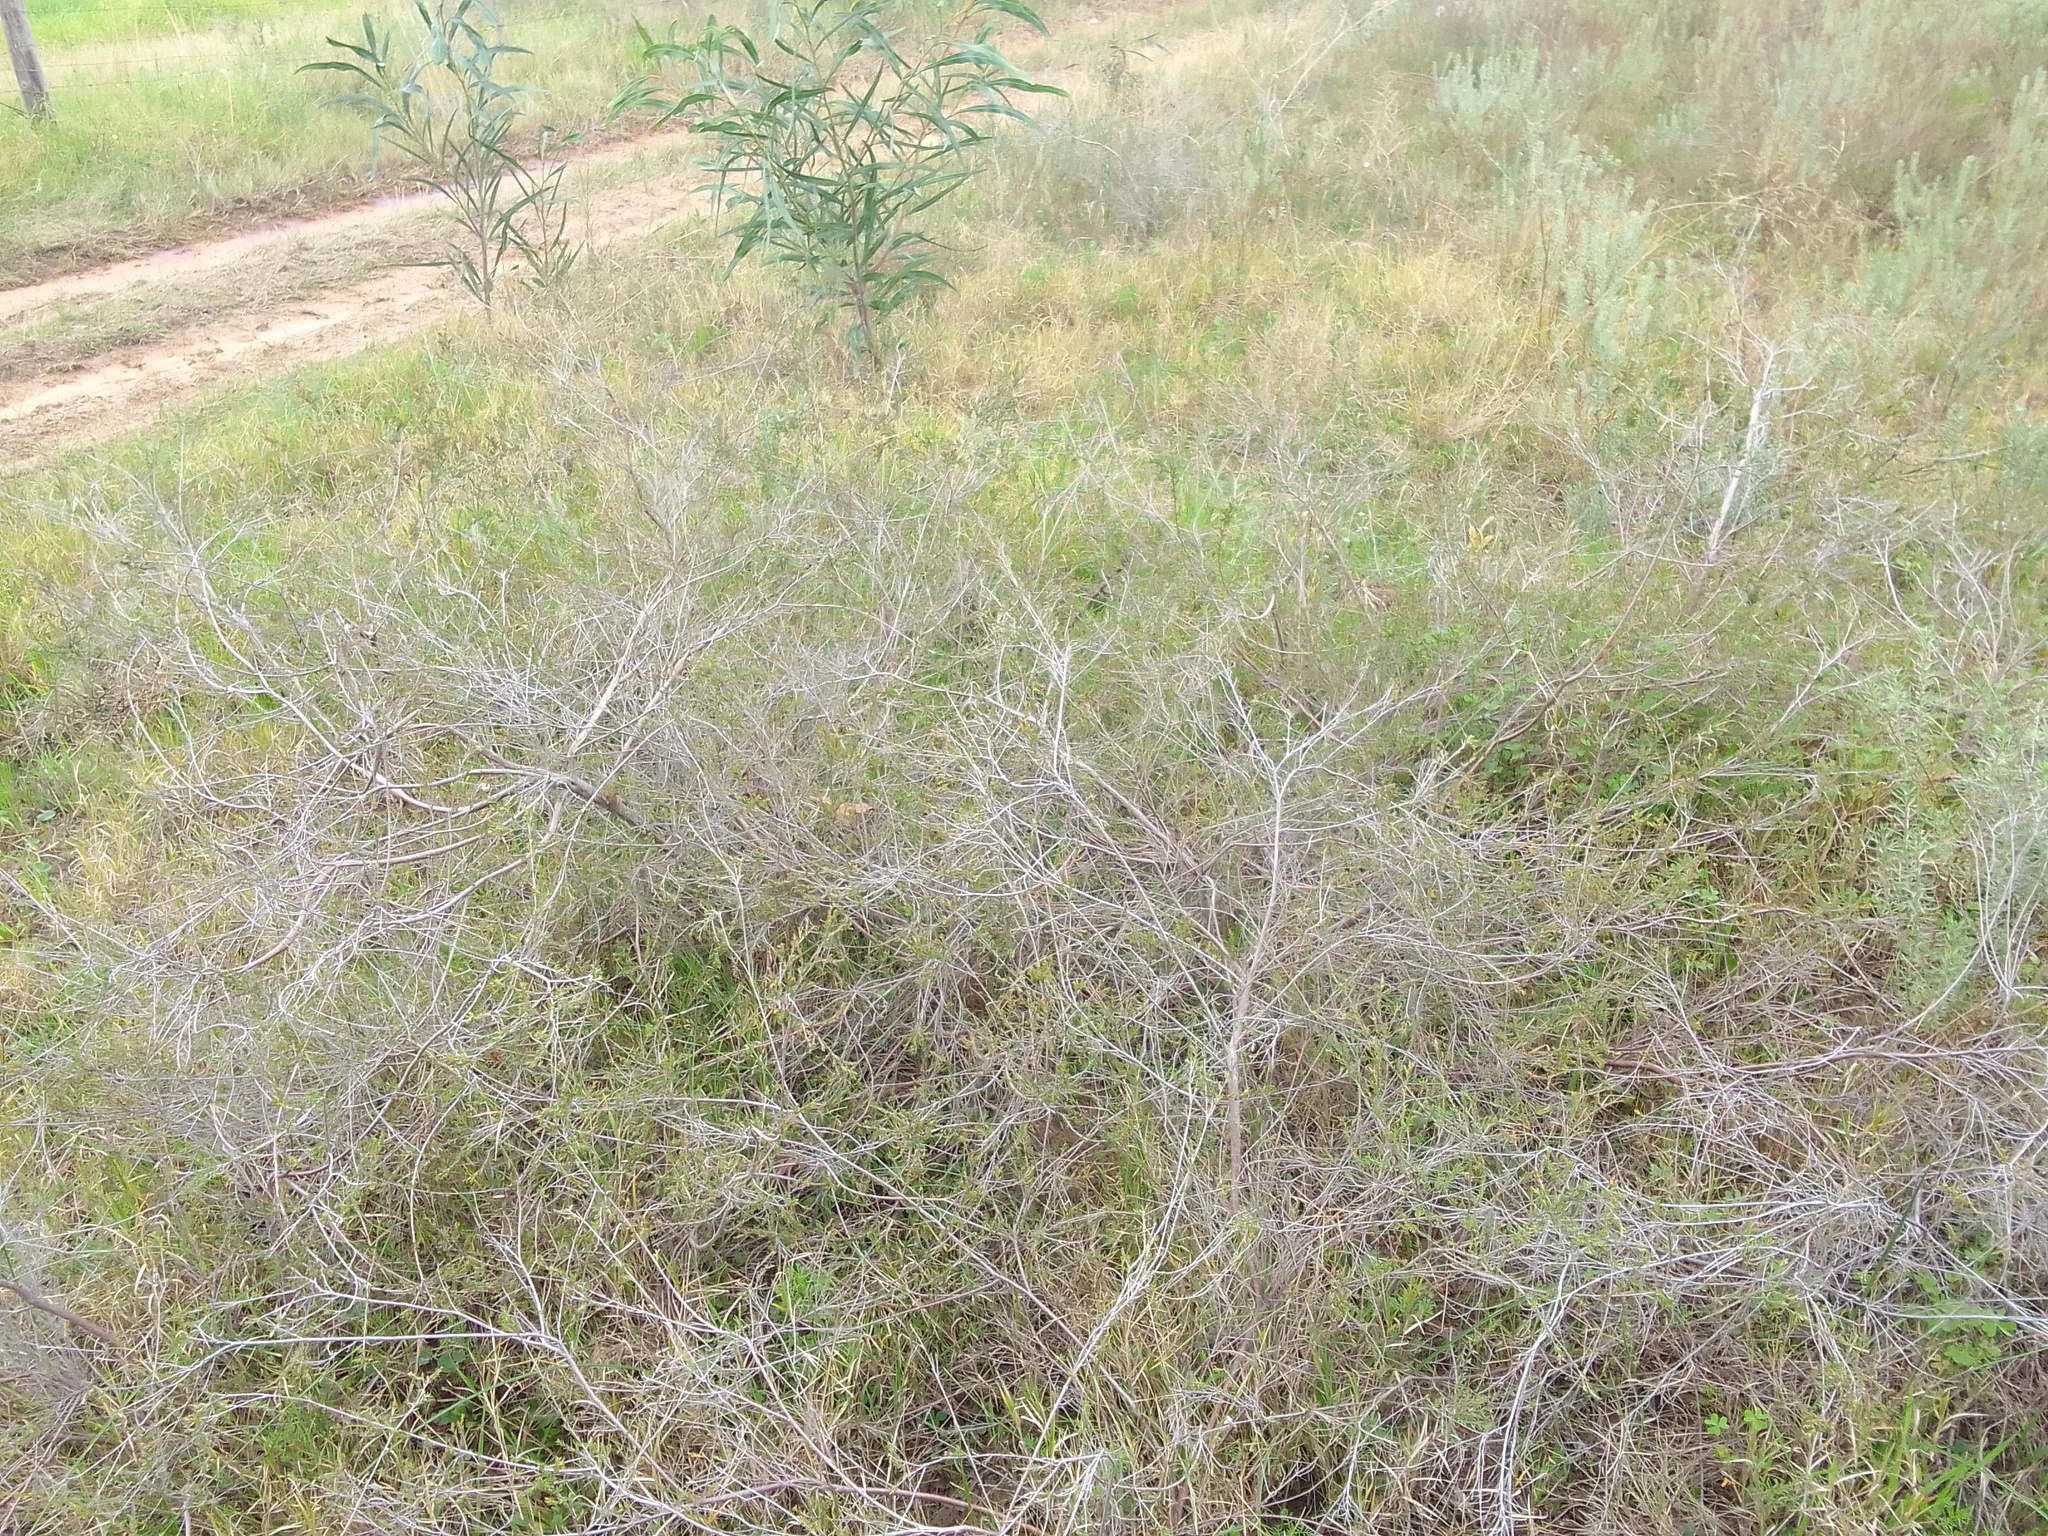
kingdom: Plantae
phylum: Tracheophyta
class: Magnoliopsida
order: Fabales
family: Fabaceae
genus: Acacia
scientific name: Acacia saligna
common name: Orange wattle
